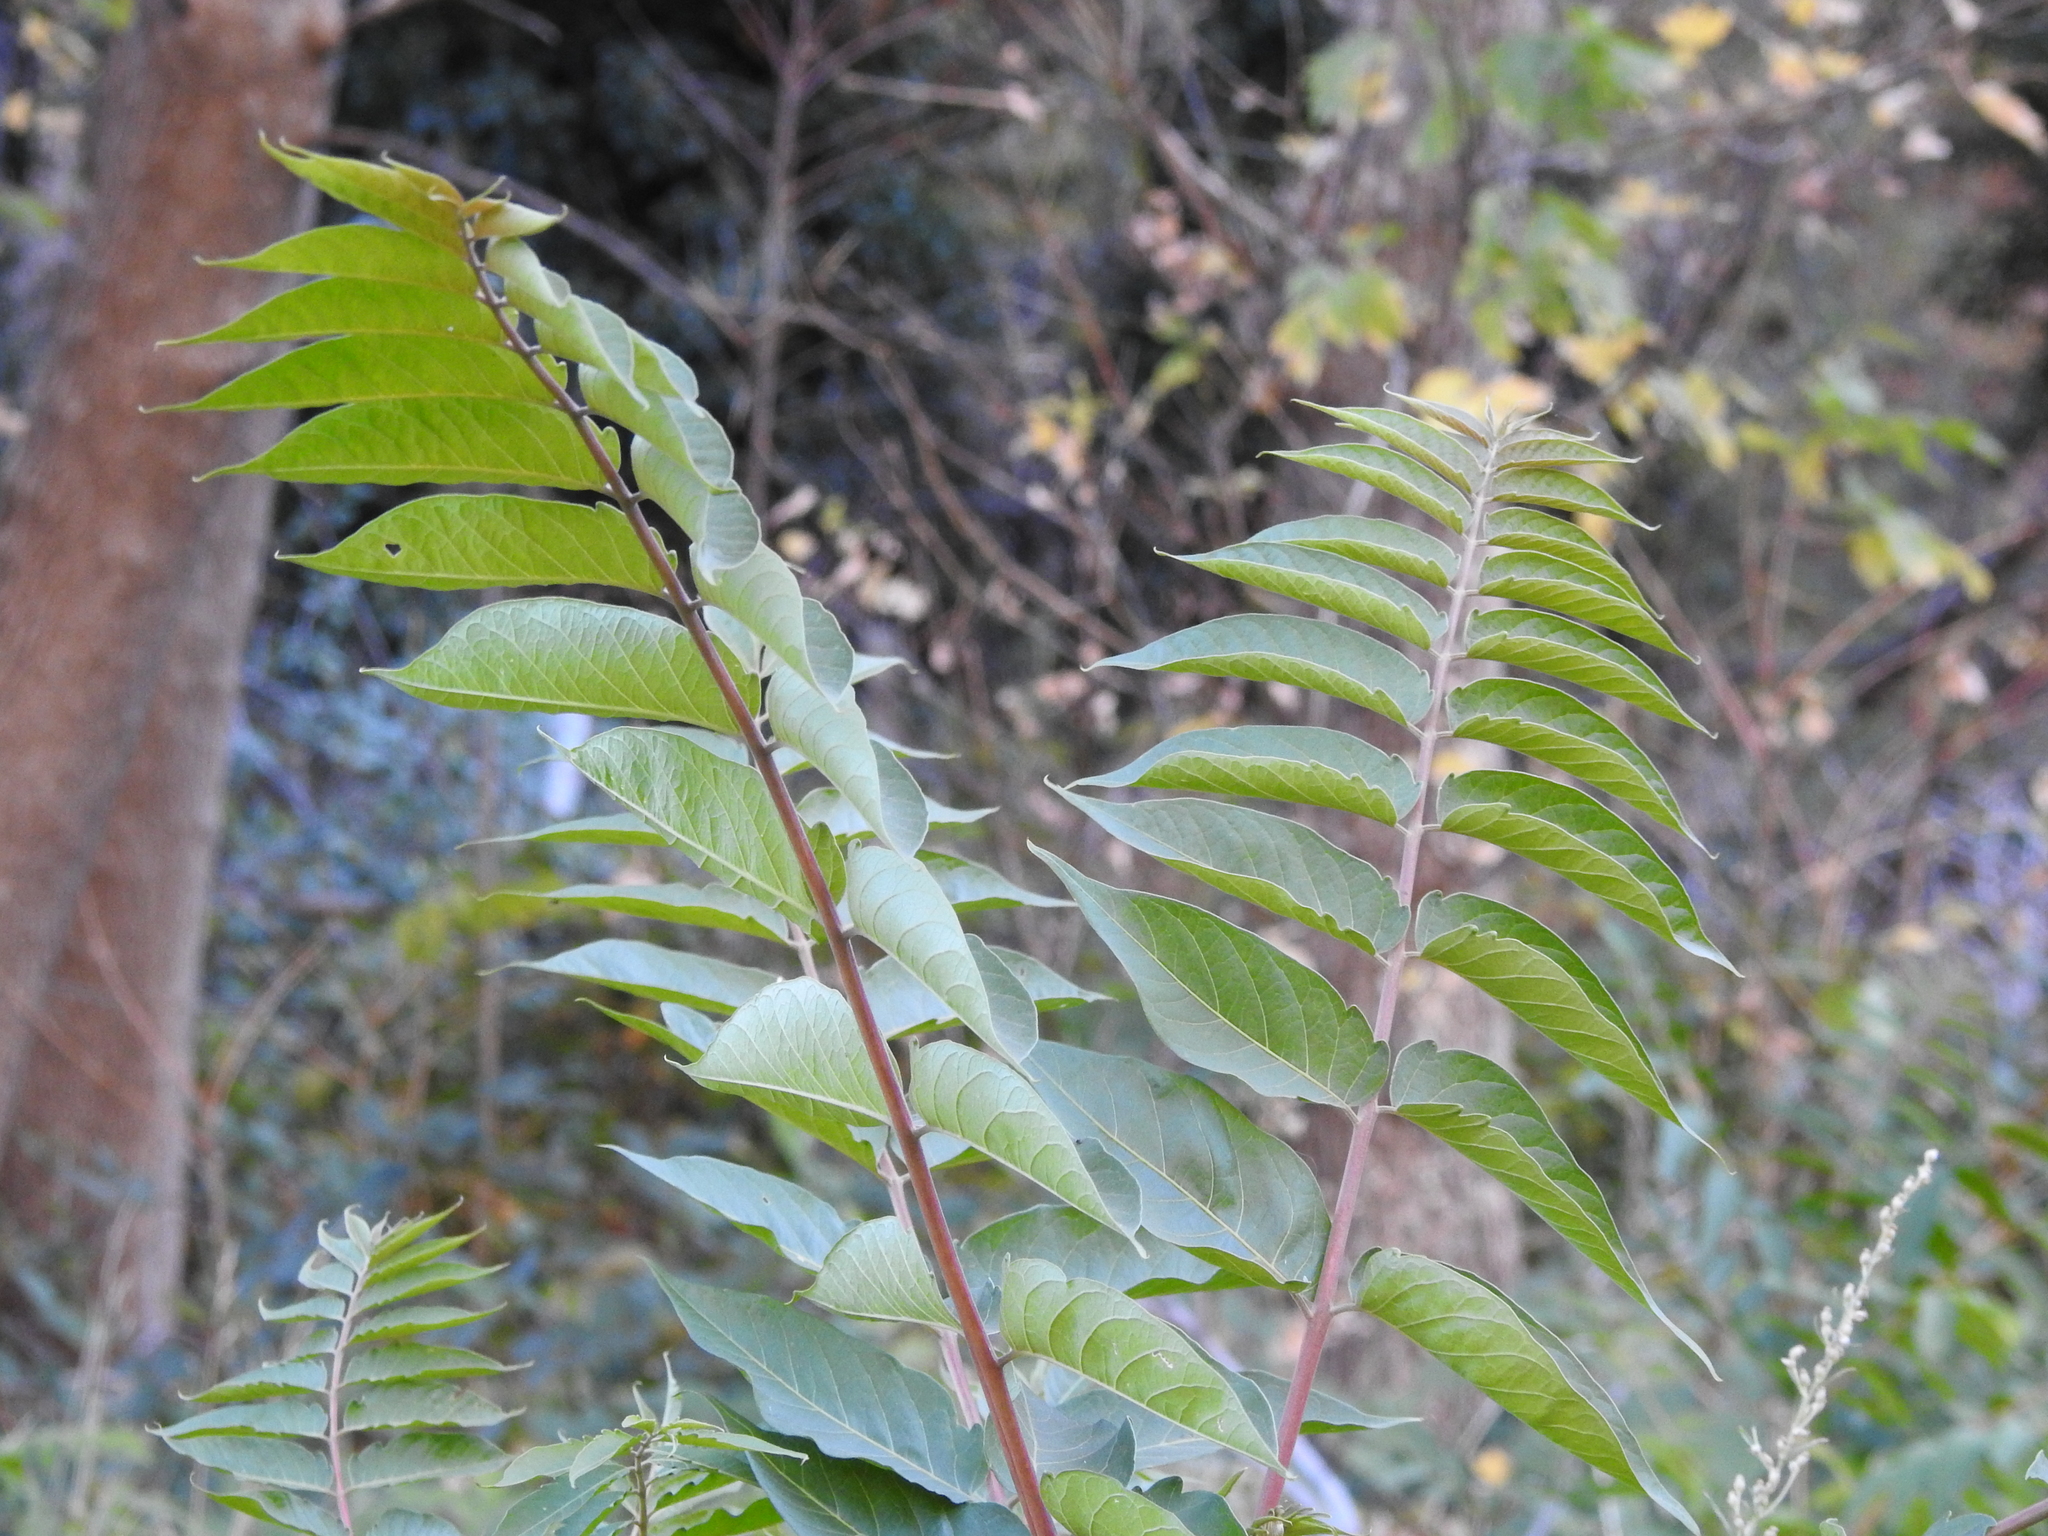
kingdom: Plantae
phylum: Tracheophyta
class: Magnoliopsida
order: Sapindales
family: Simaroubaceae
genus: Ailanthus
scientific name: Ailanthus altissima
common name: Tree-of-heaven
